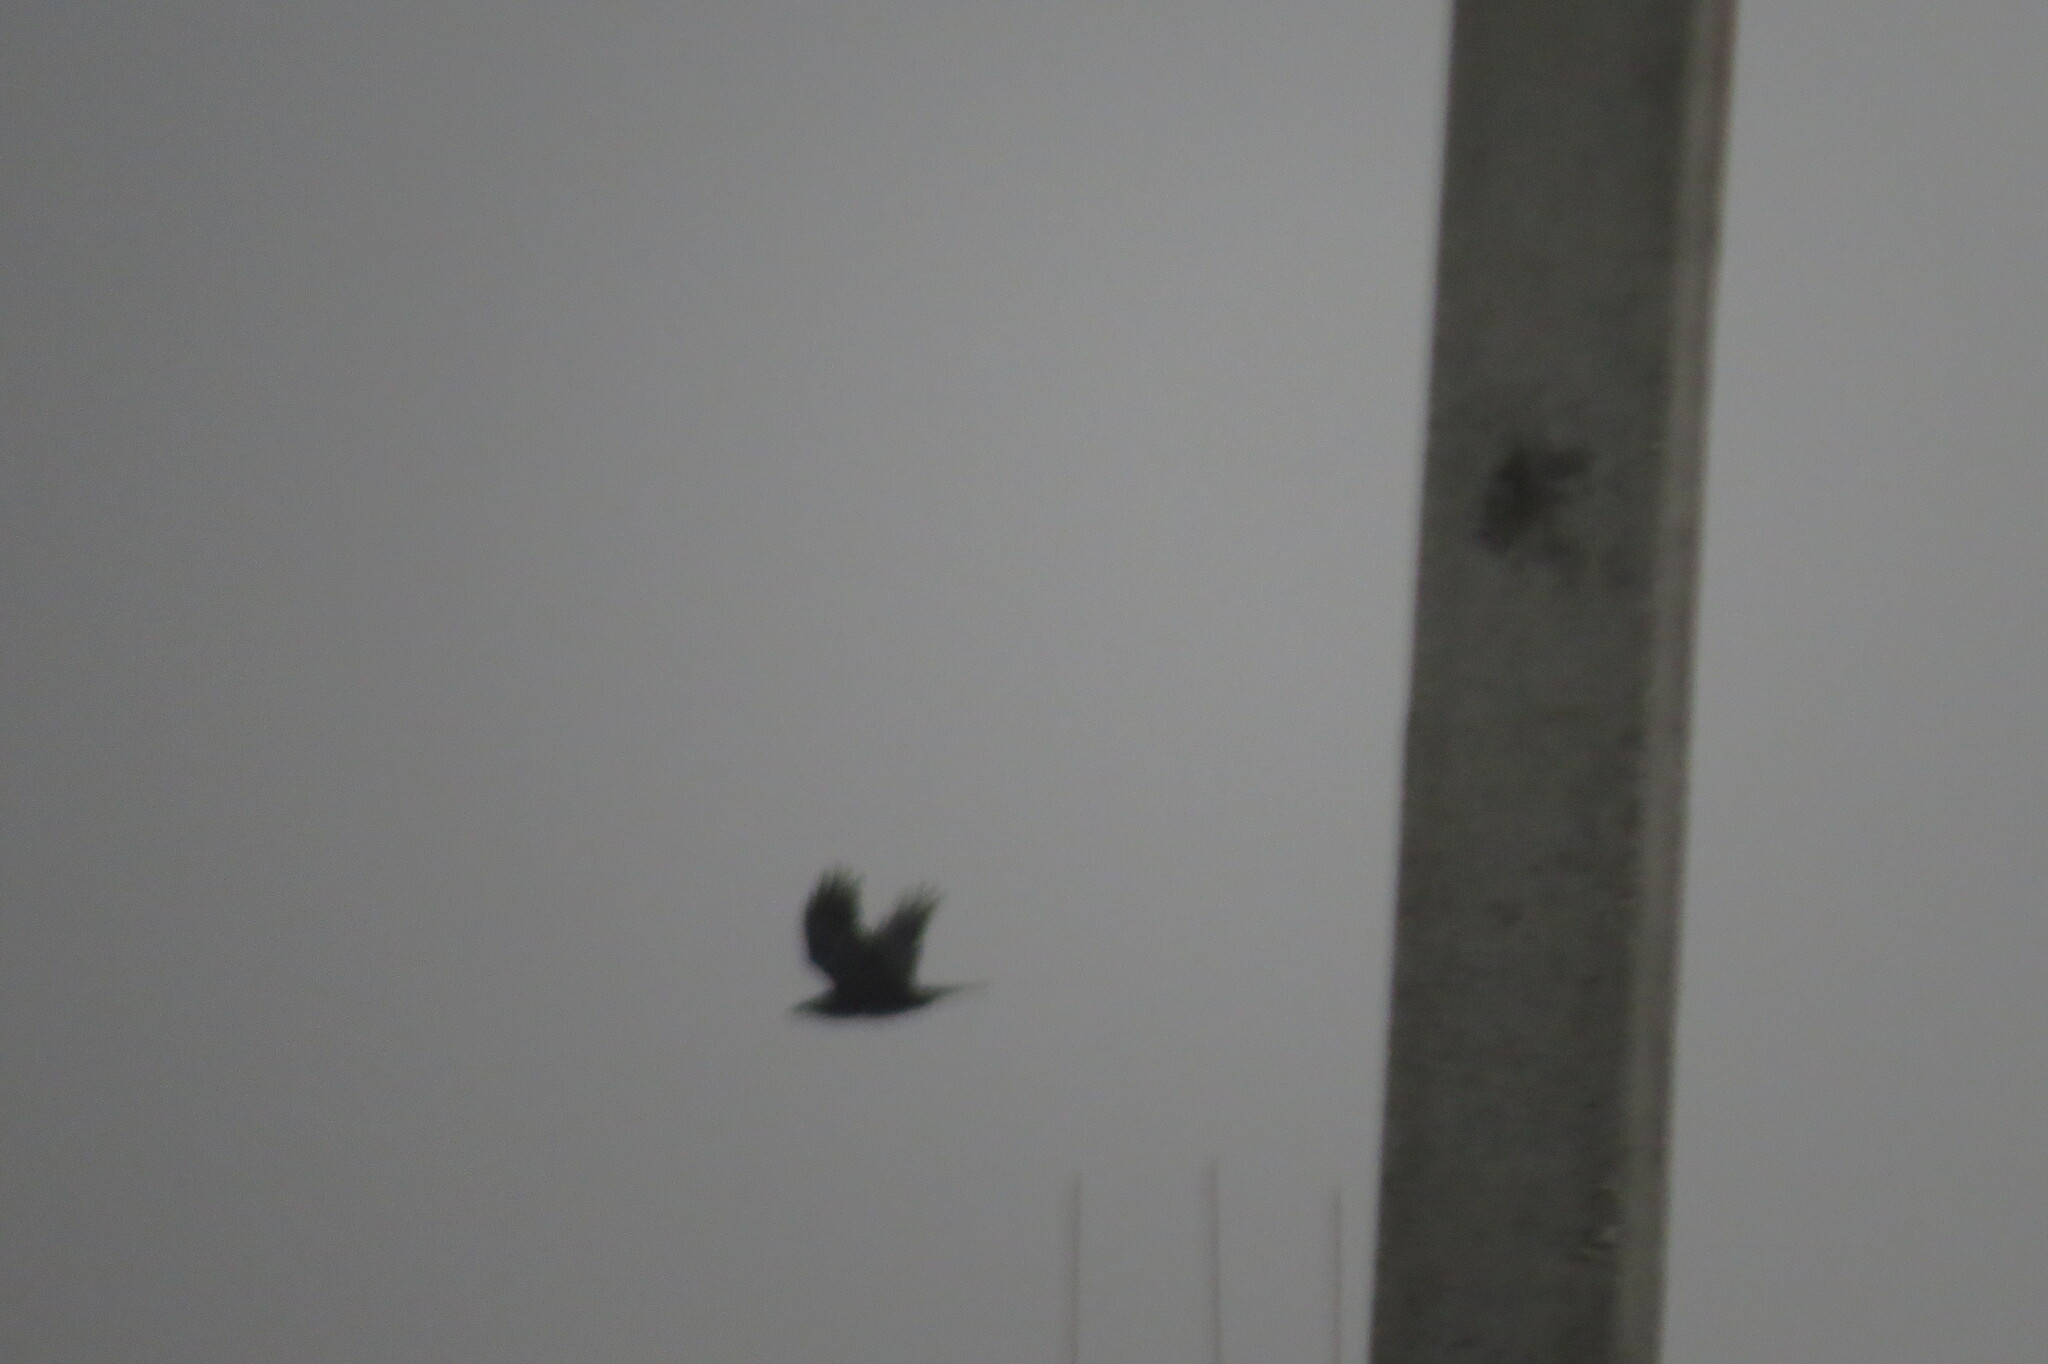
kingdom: Animalia
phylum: Chordata
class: Aves
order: Passeriformes
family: Corvidae
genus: Corvus
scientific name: Corvus corax
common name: Common raven
